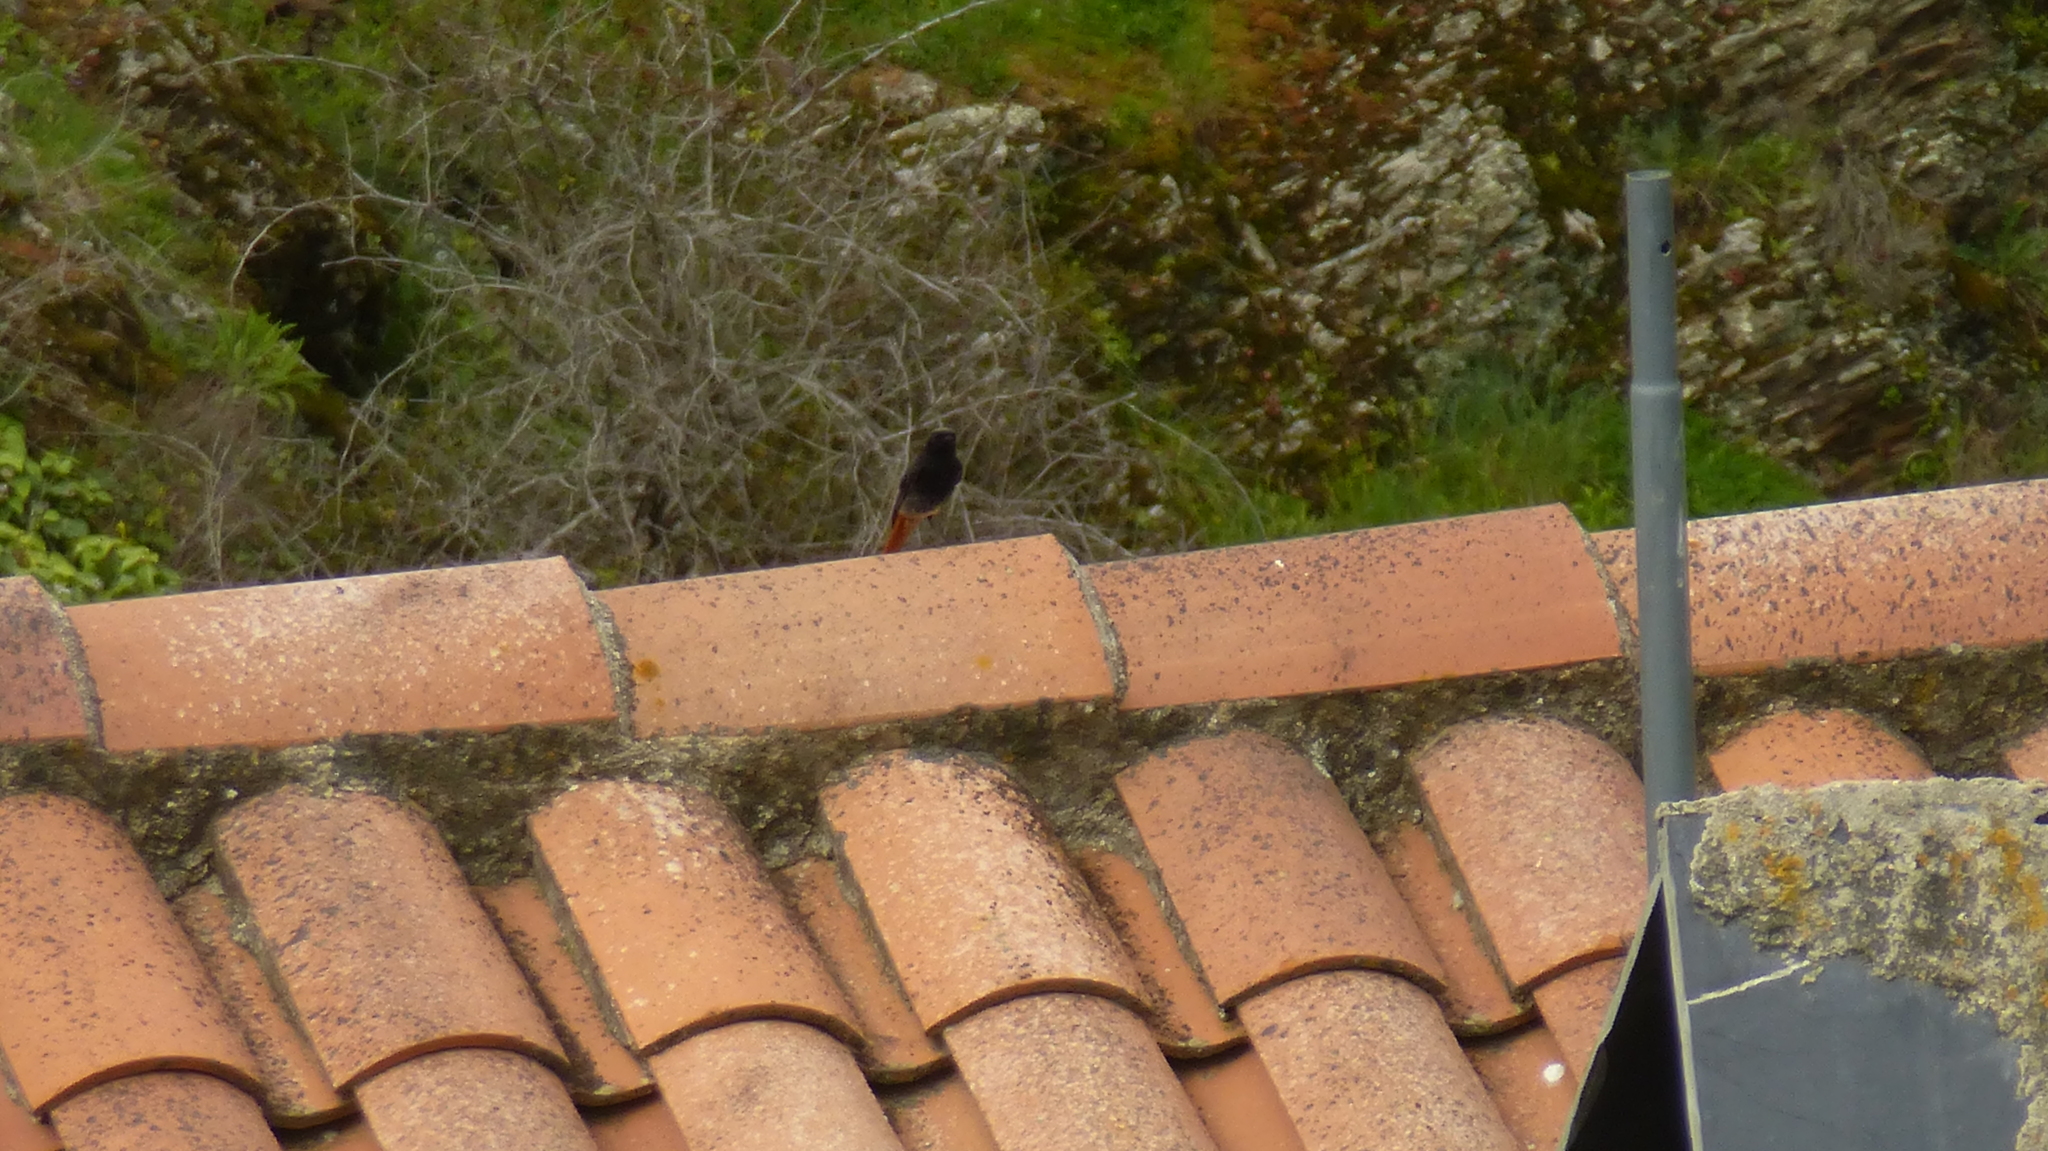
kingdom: Animalia
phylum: Chordata
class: Aves
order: Passeriformes
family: Muscicapidae
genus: Phoenicurus
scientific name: Phoenicurus ochruros
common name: Black redstart
